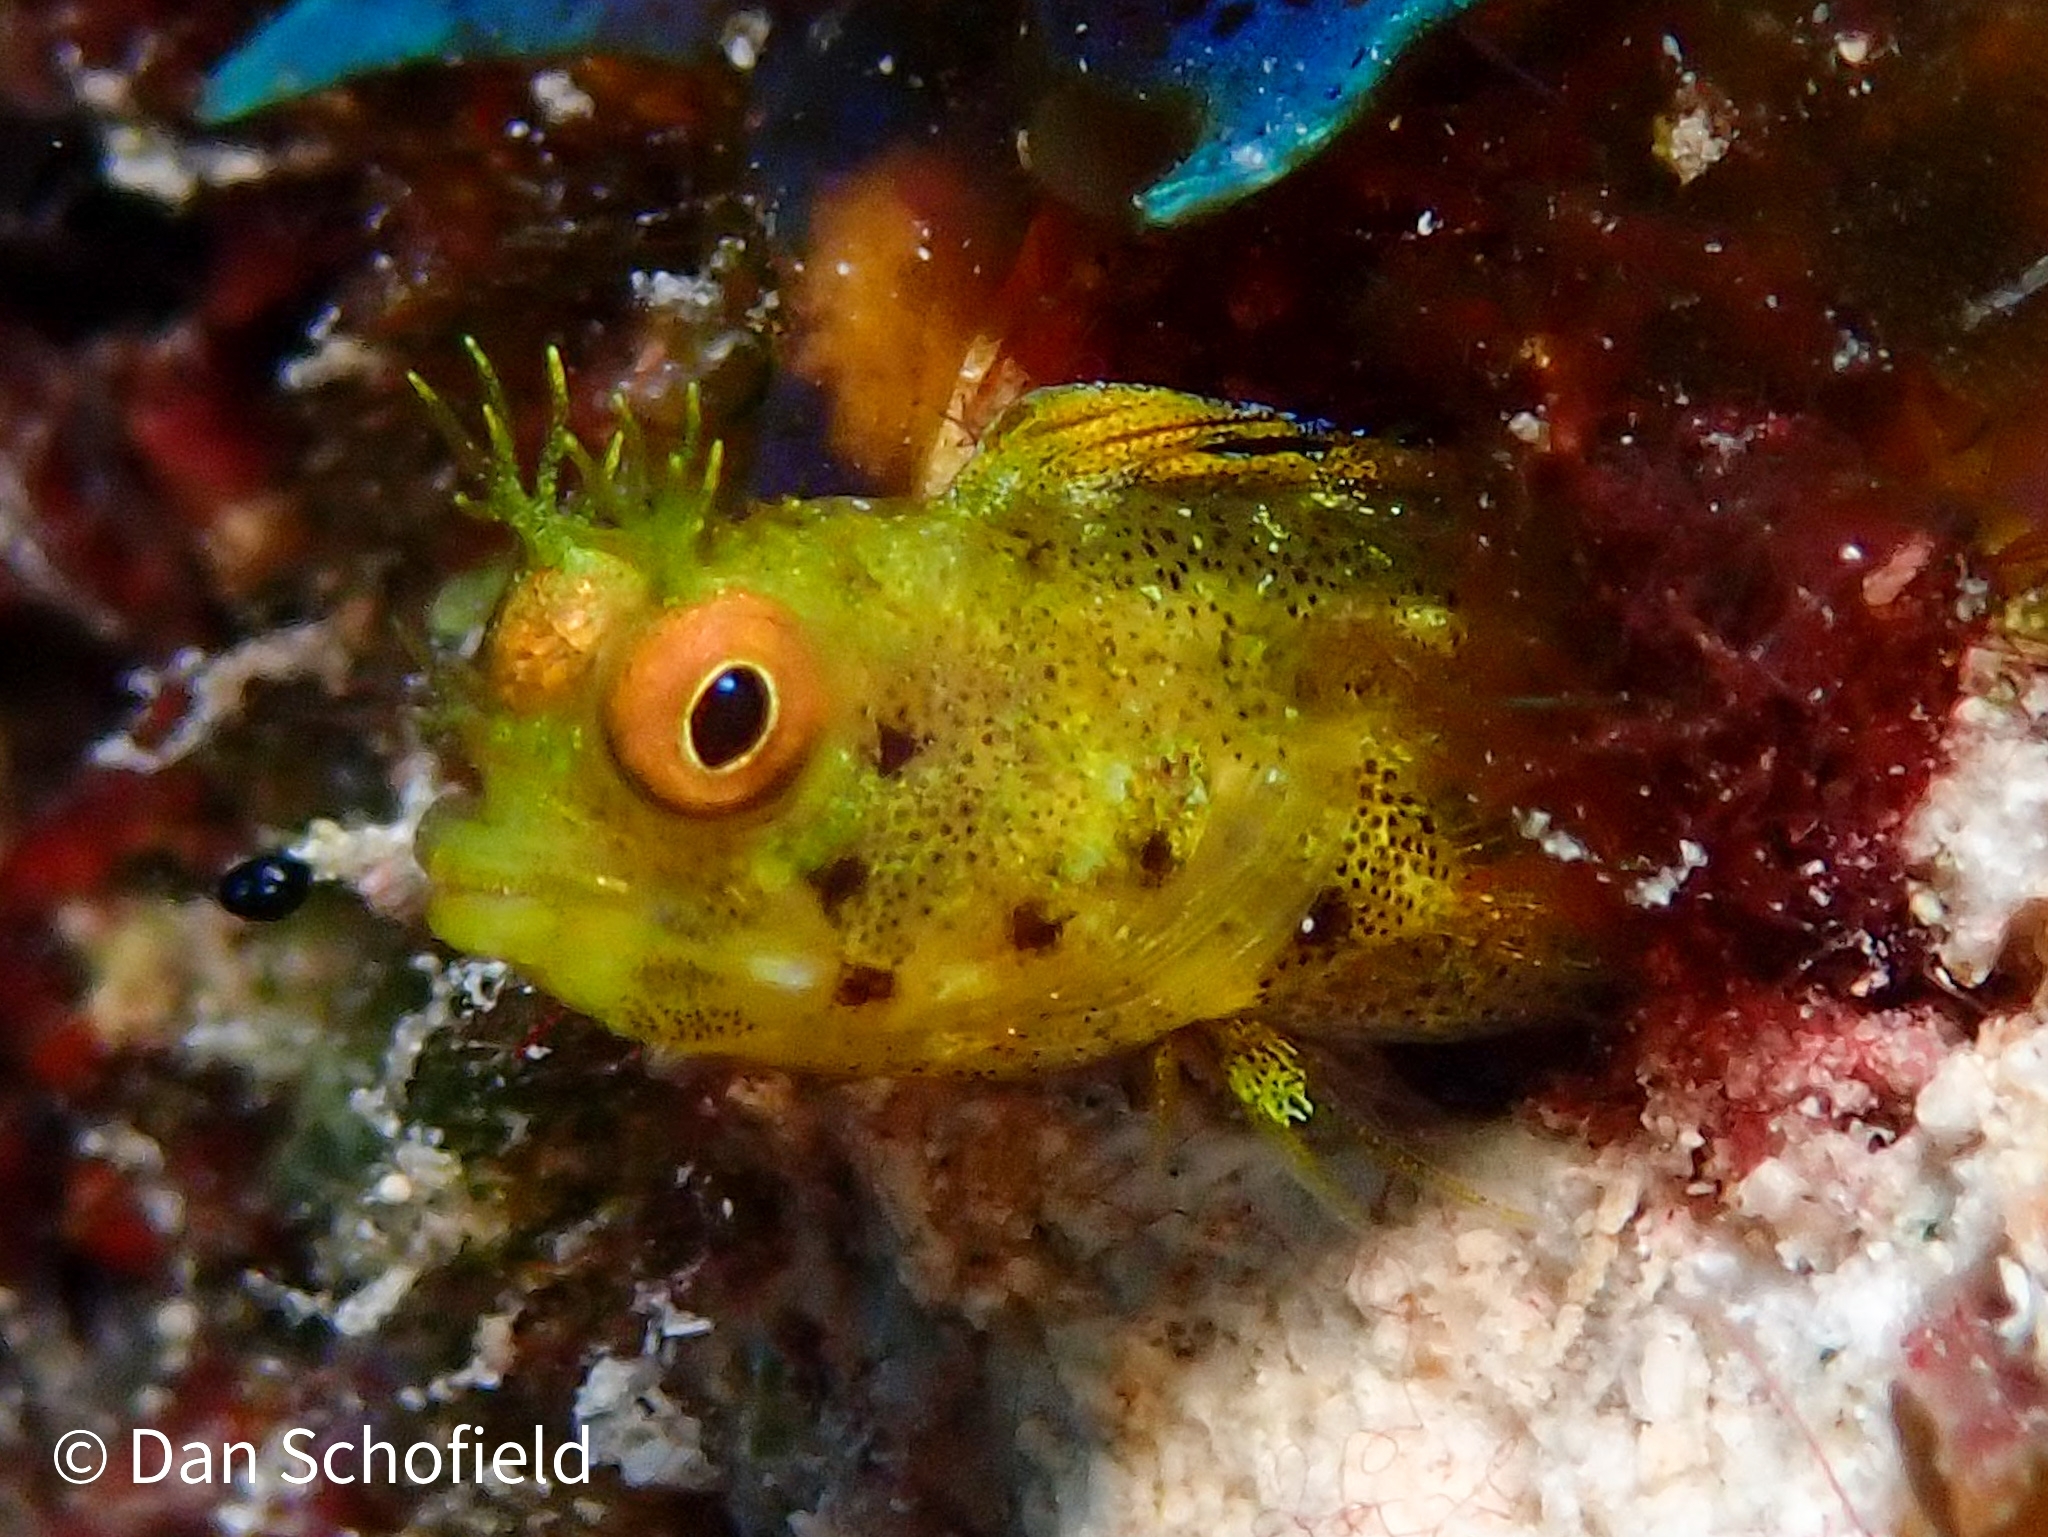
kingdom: Animalia
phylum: Chordata
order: Perciformes
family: Chaenopsidae
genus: Acanthemblemaria
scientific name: Acanthemblemaria aspera
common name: Roughhead blenny
